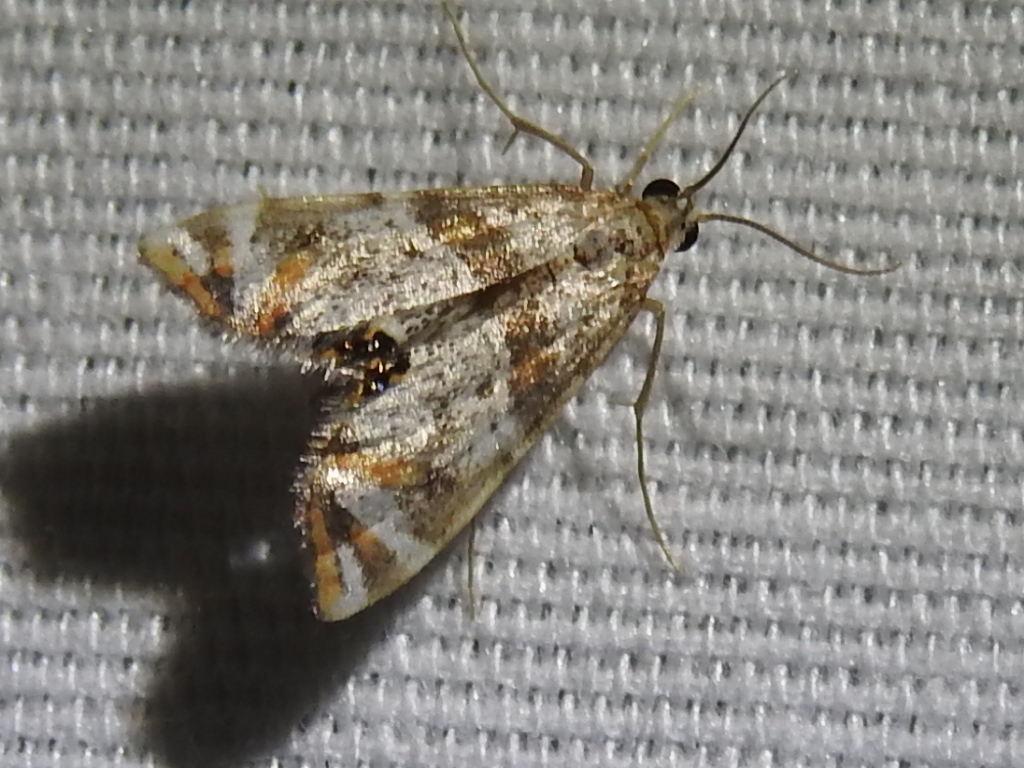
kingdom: Animalia
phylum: Arthropoda
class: Insecta
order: Lepidoptera
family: Crambidae
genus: Petrophila
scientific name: Petrophila jaliscalis
